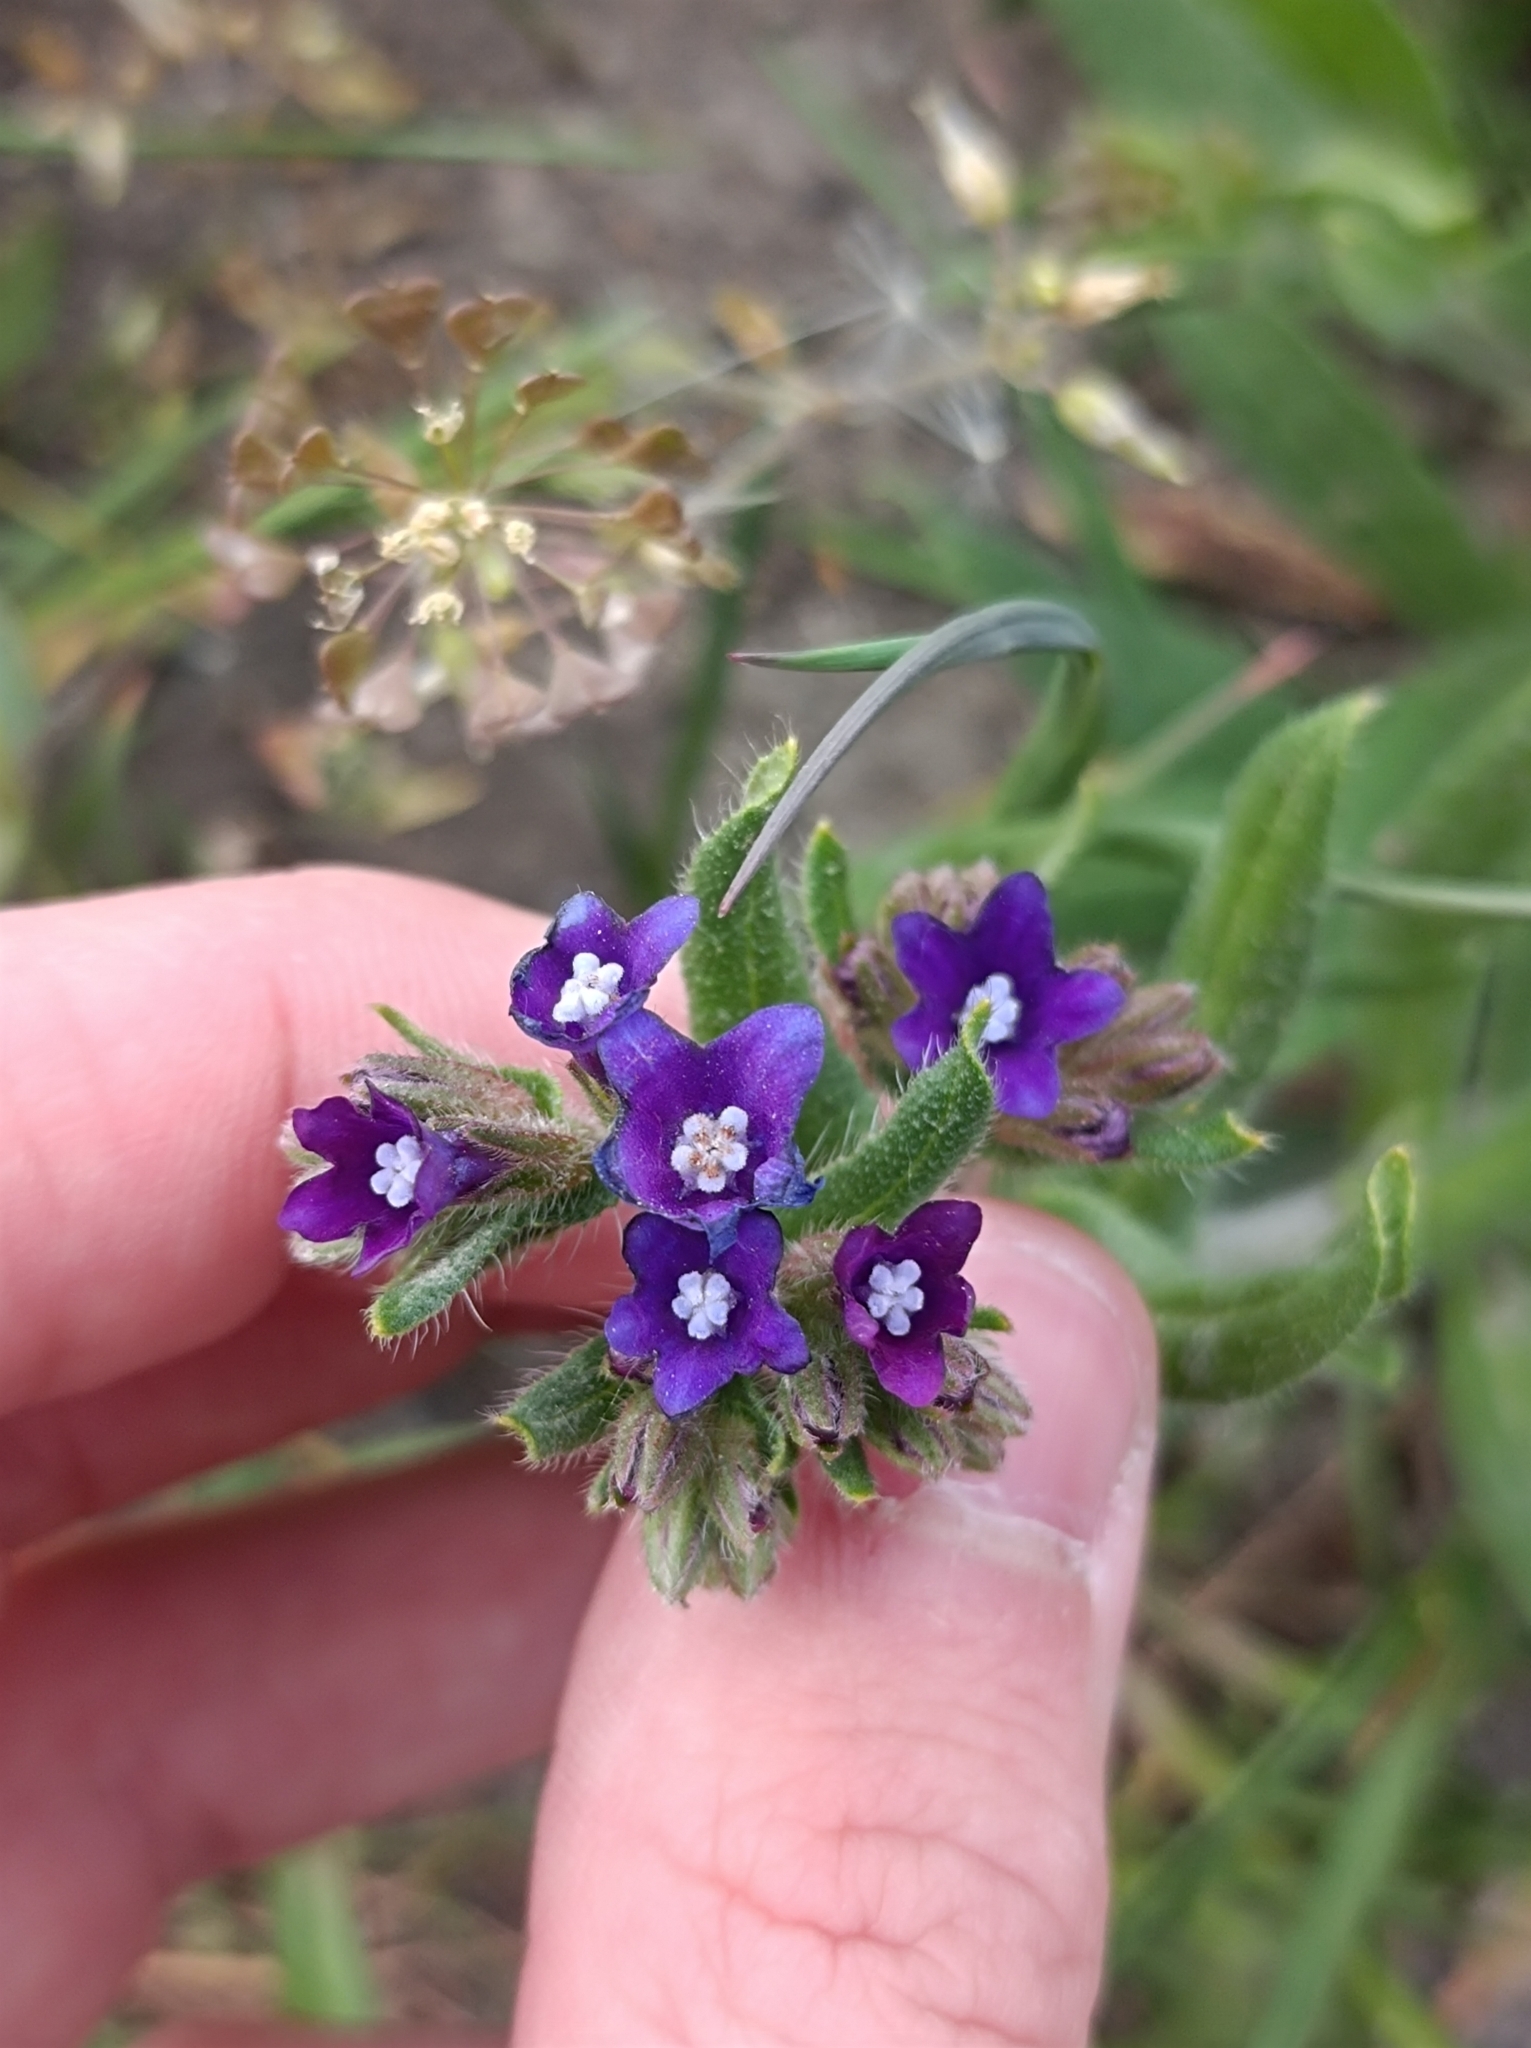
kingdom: Plantae
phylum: Tracheophyta
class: Magnoliopsida
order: Boraginales
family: Boraginaceae
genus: Anchusa
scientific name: Anchusa officinalis
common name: Alkanet
